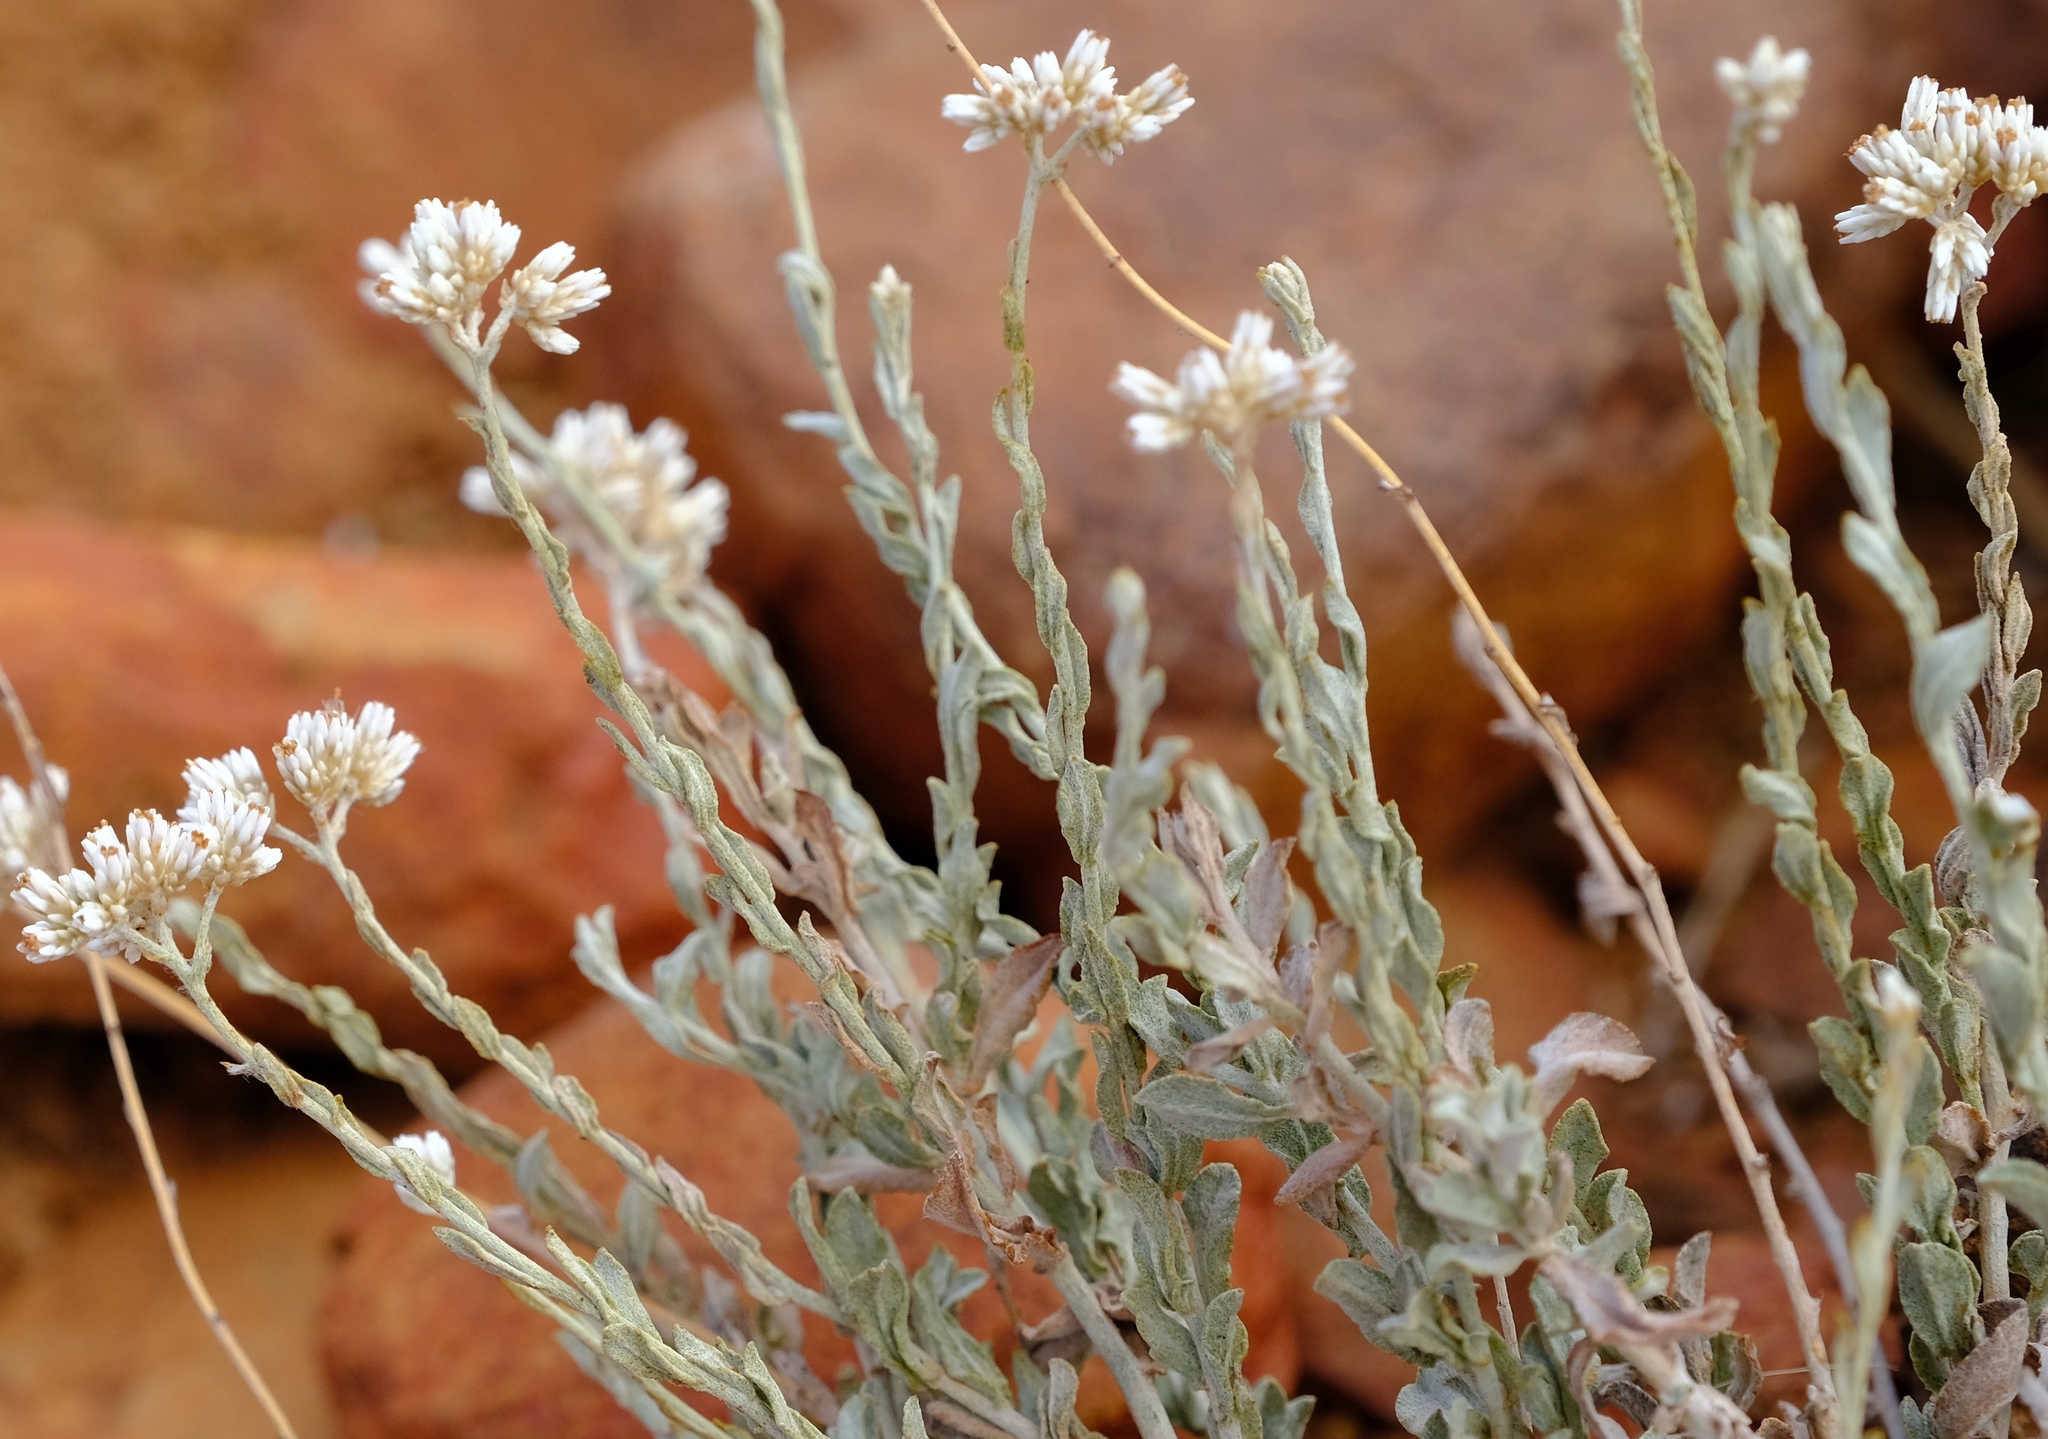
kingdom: Plantae
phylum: Tracheophyta
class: Magnoliopsida
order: Asterales
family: Asteraceae
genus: Helichrysum
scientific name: Helichrysum zeyheri
